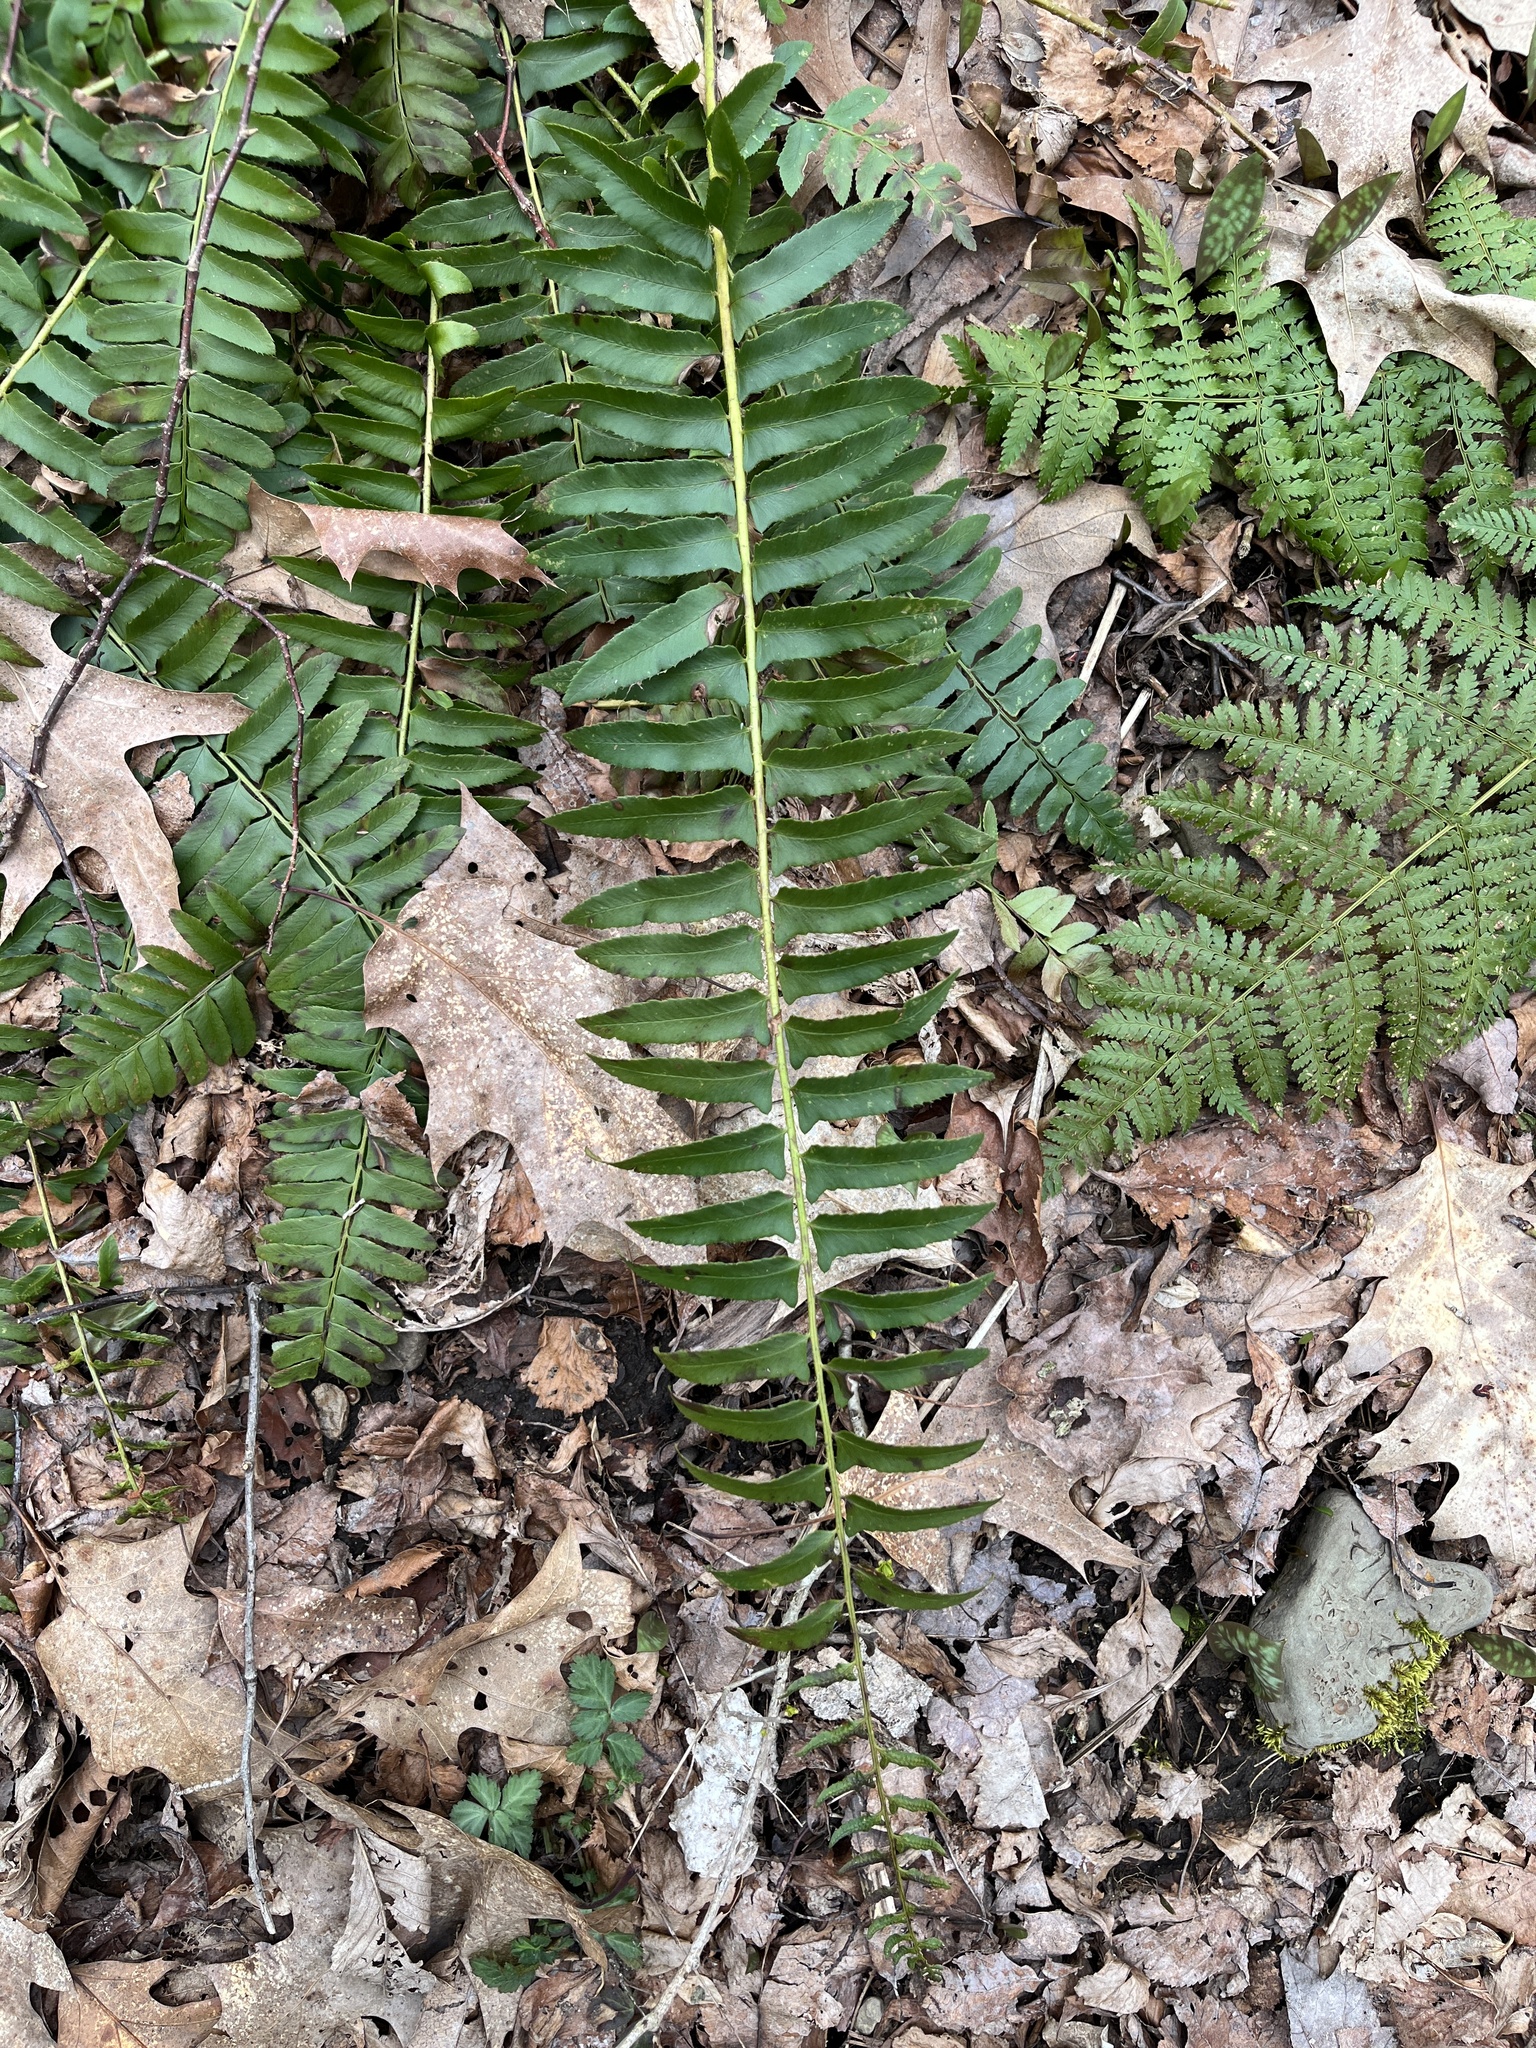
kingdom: Plantae
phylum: Tracheophyta
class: Polypodiopsida
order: Polypodiales
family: Dryopteridaceae
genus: Polystichum
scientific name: Polystichum acrostichoides
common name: Christmas fern
